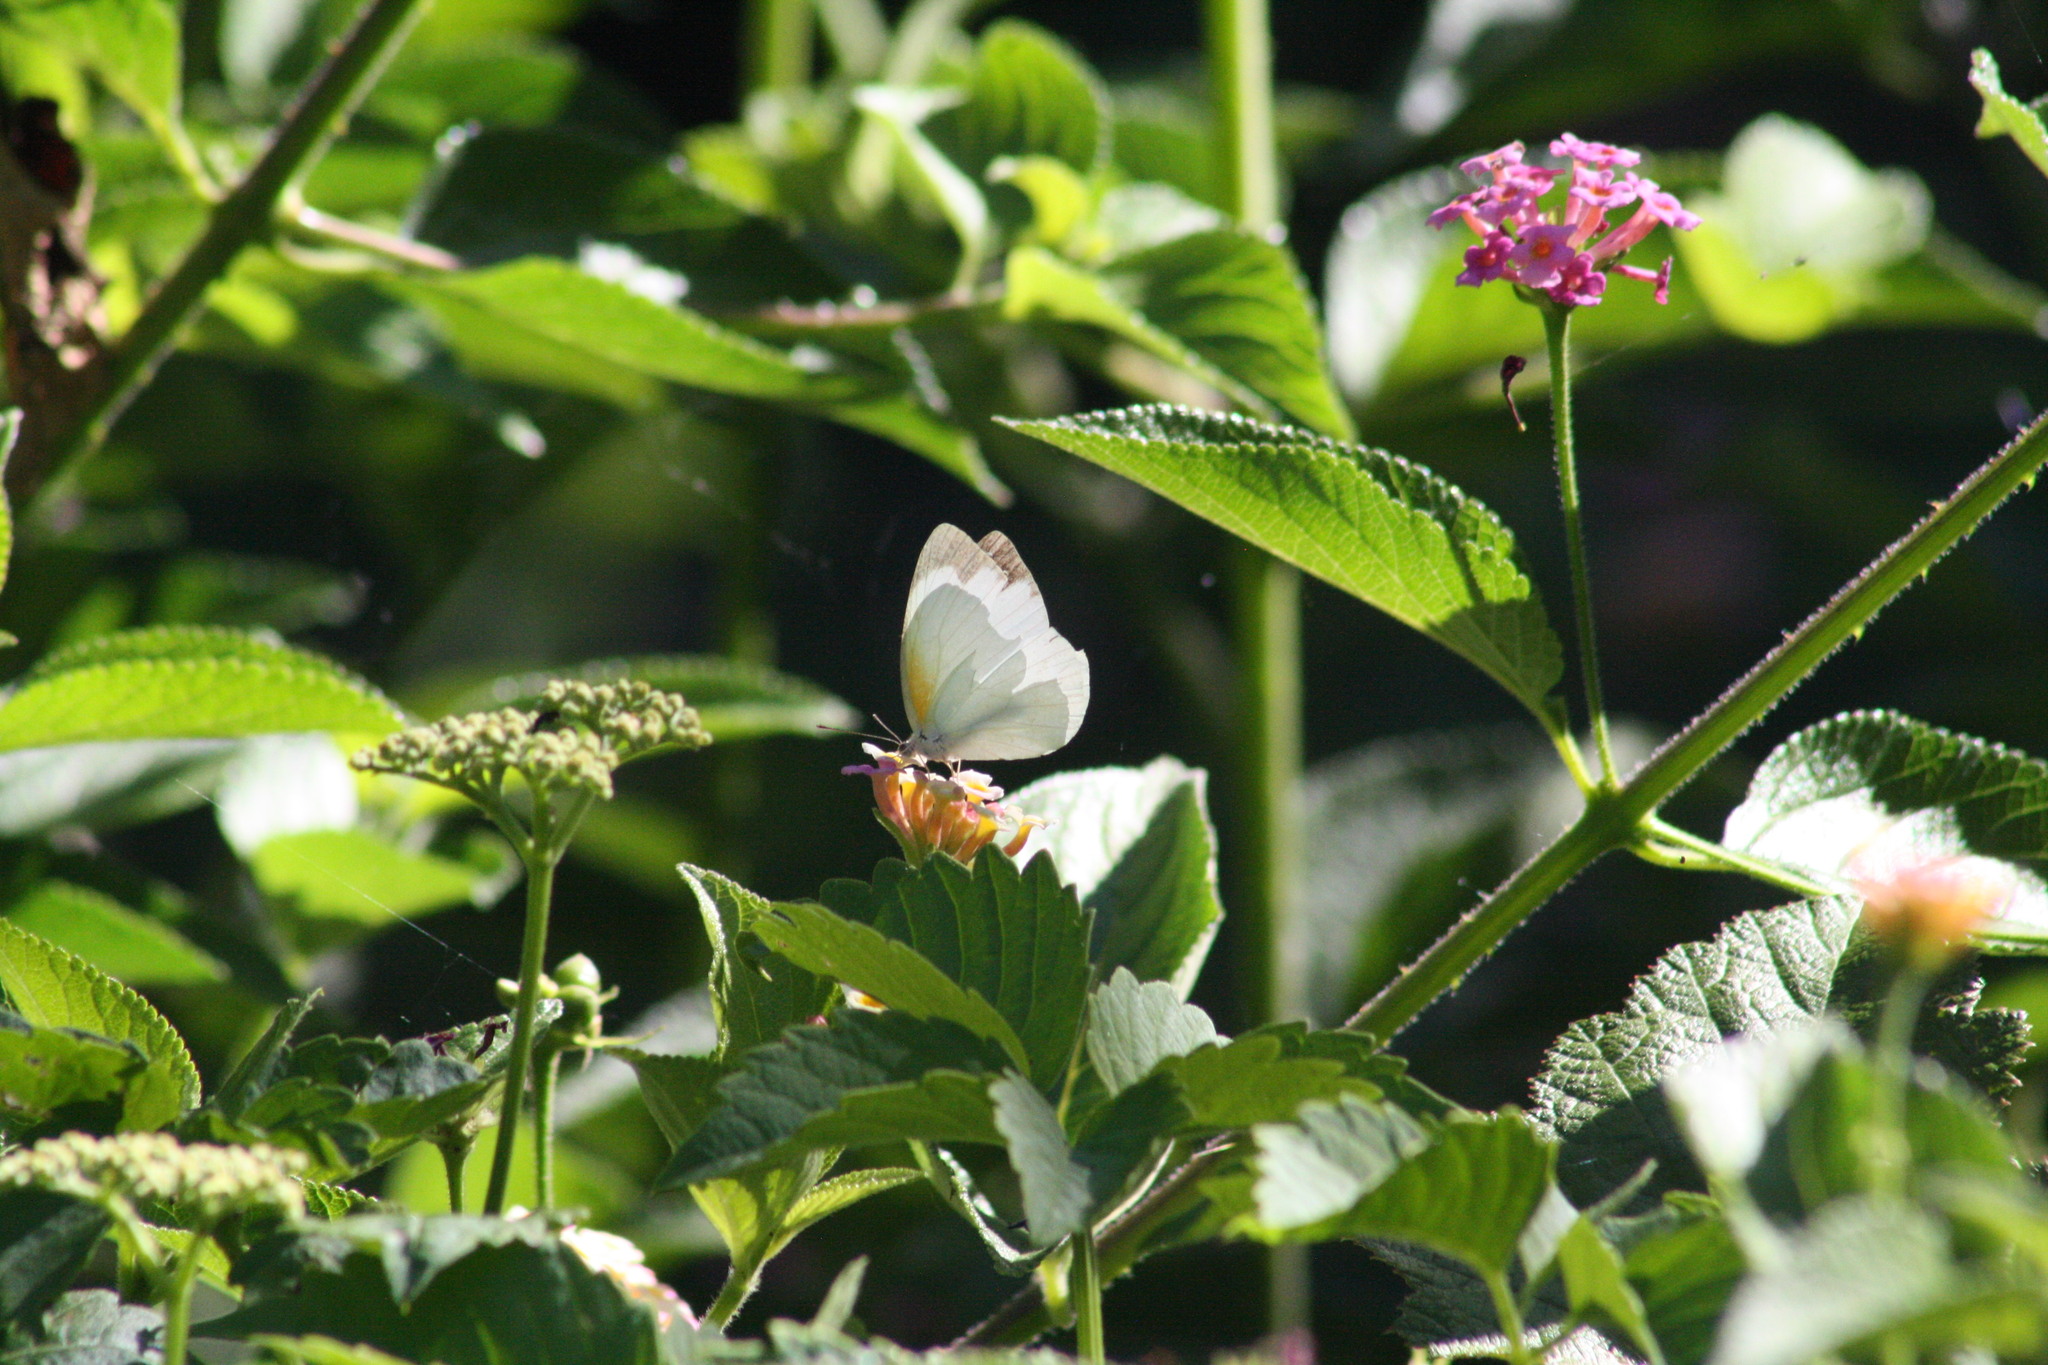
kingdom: Animalia
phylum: Arthropoda
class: Insecta
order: Lepidoptera
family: Pieridae
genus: Elodina
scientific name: Elodina parthia
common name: Chalk white
